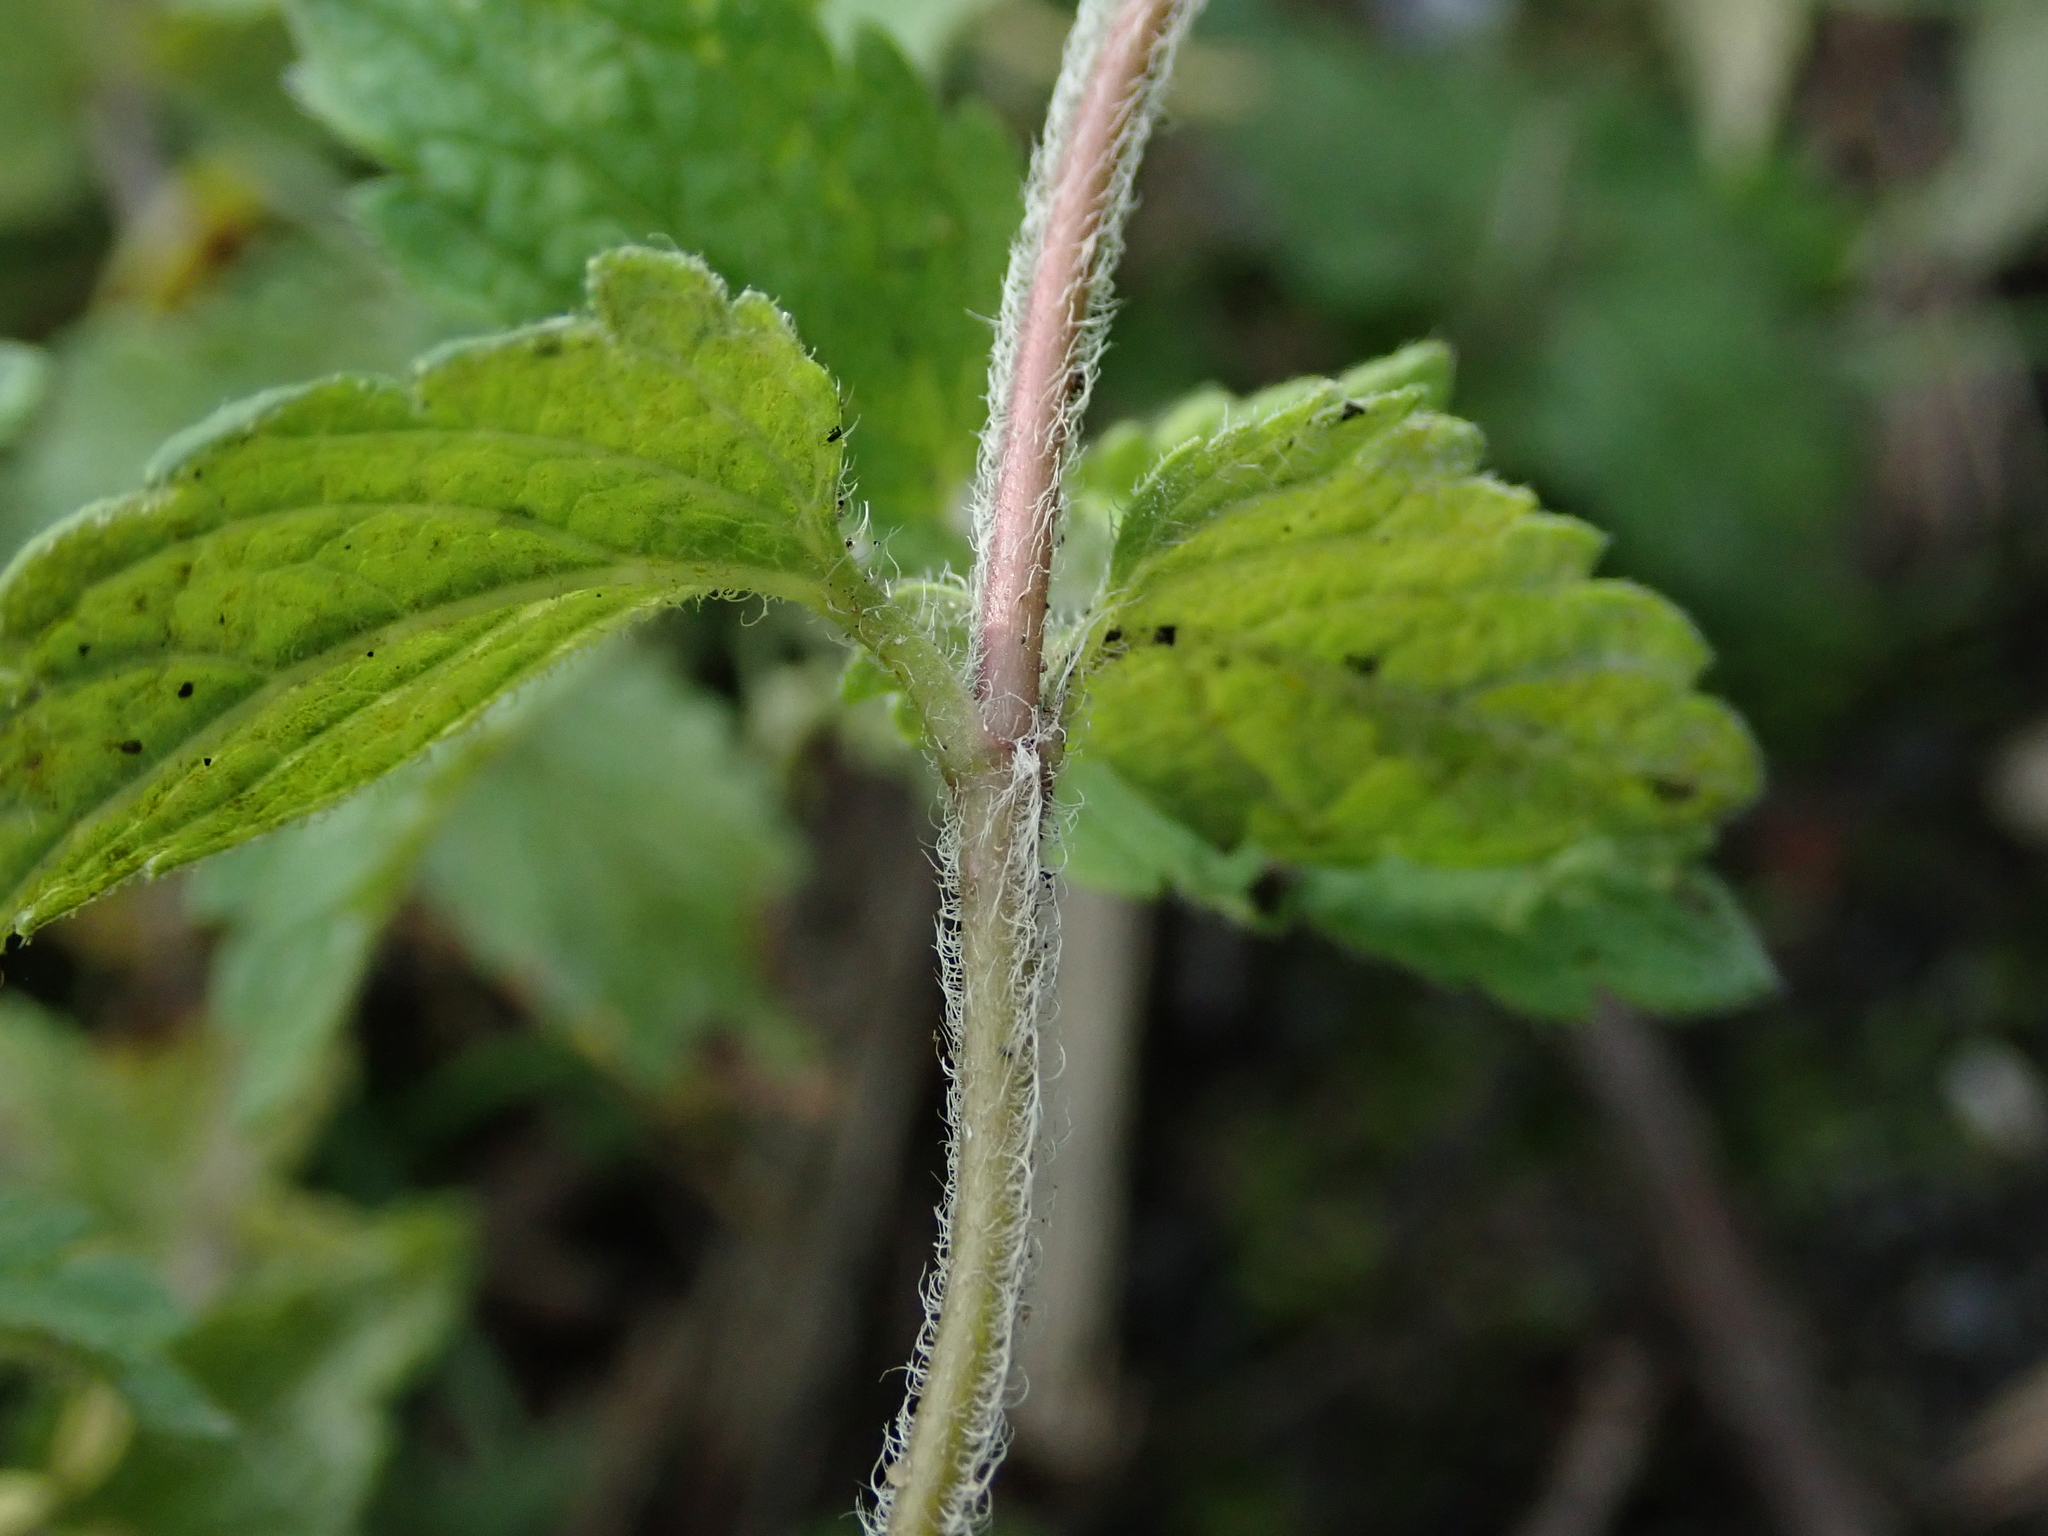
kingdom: Plantae
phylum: Tracheophyta
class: Magnoliopsida
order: Lamiales
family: Plantaginaceae
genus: Veronica
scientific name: Veronica chamaedrys
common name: Germander speedwell
